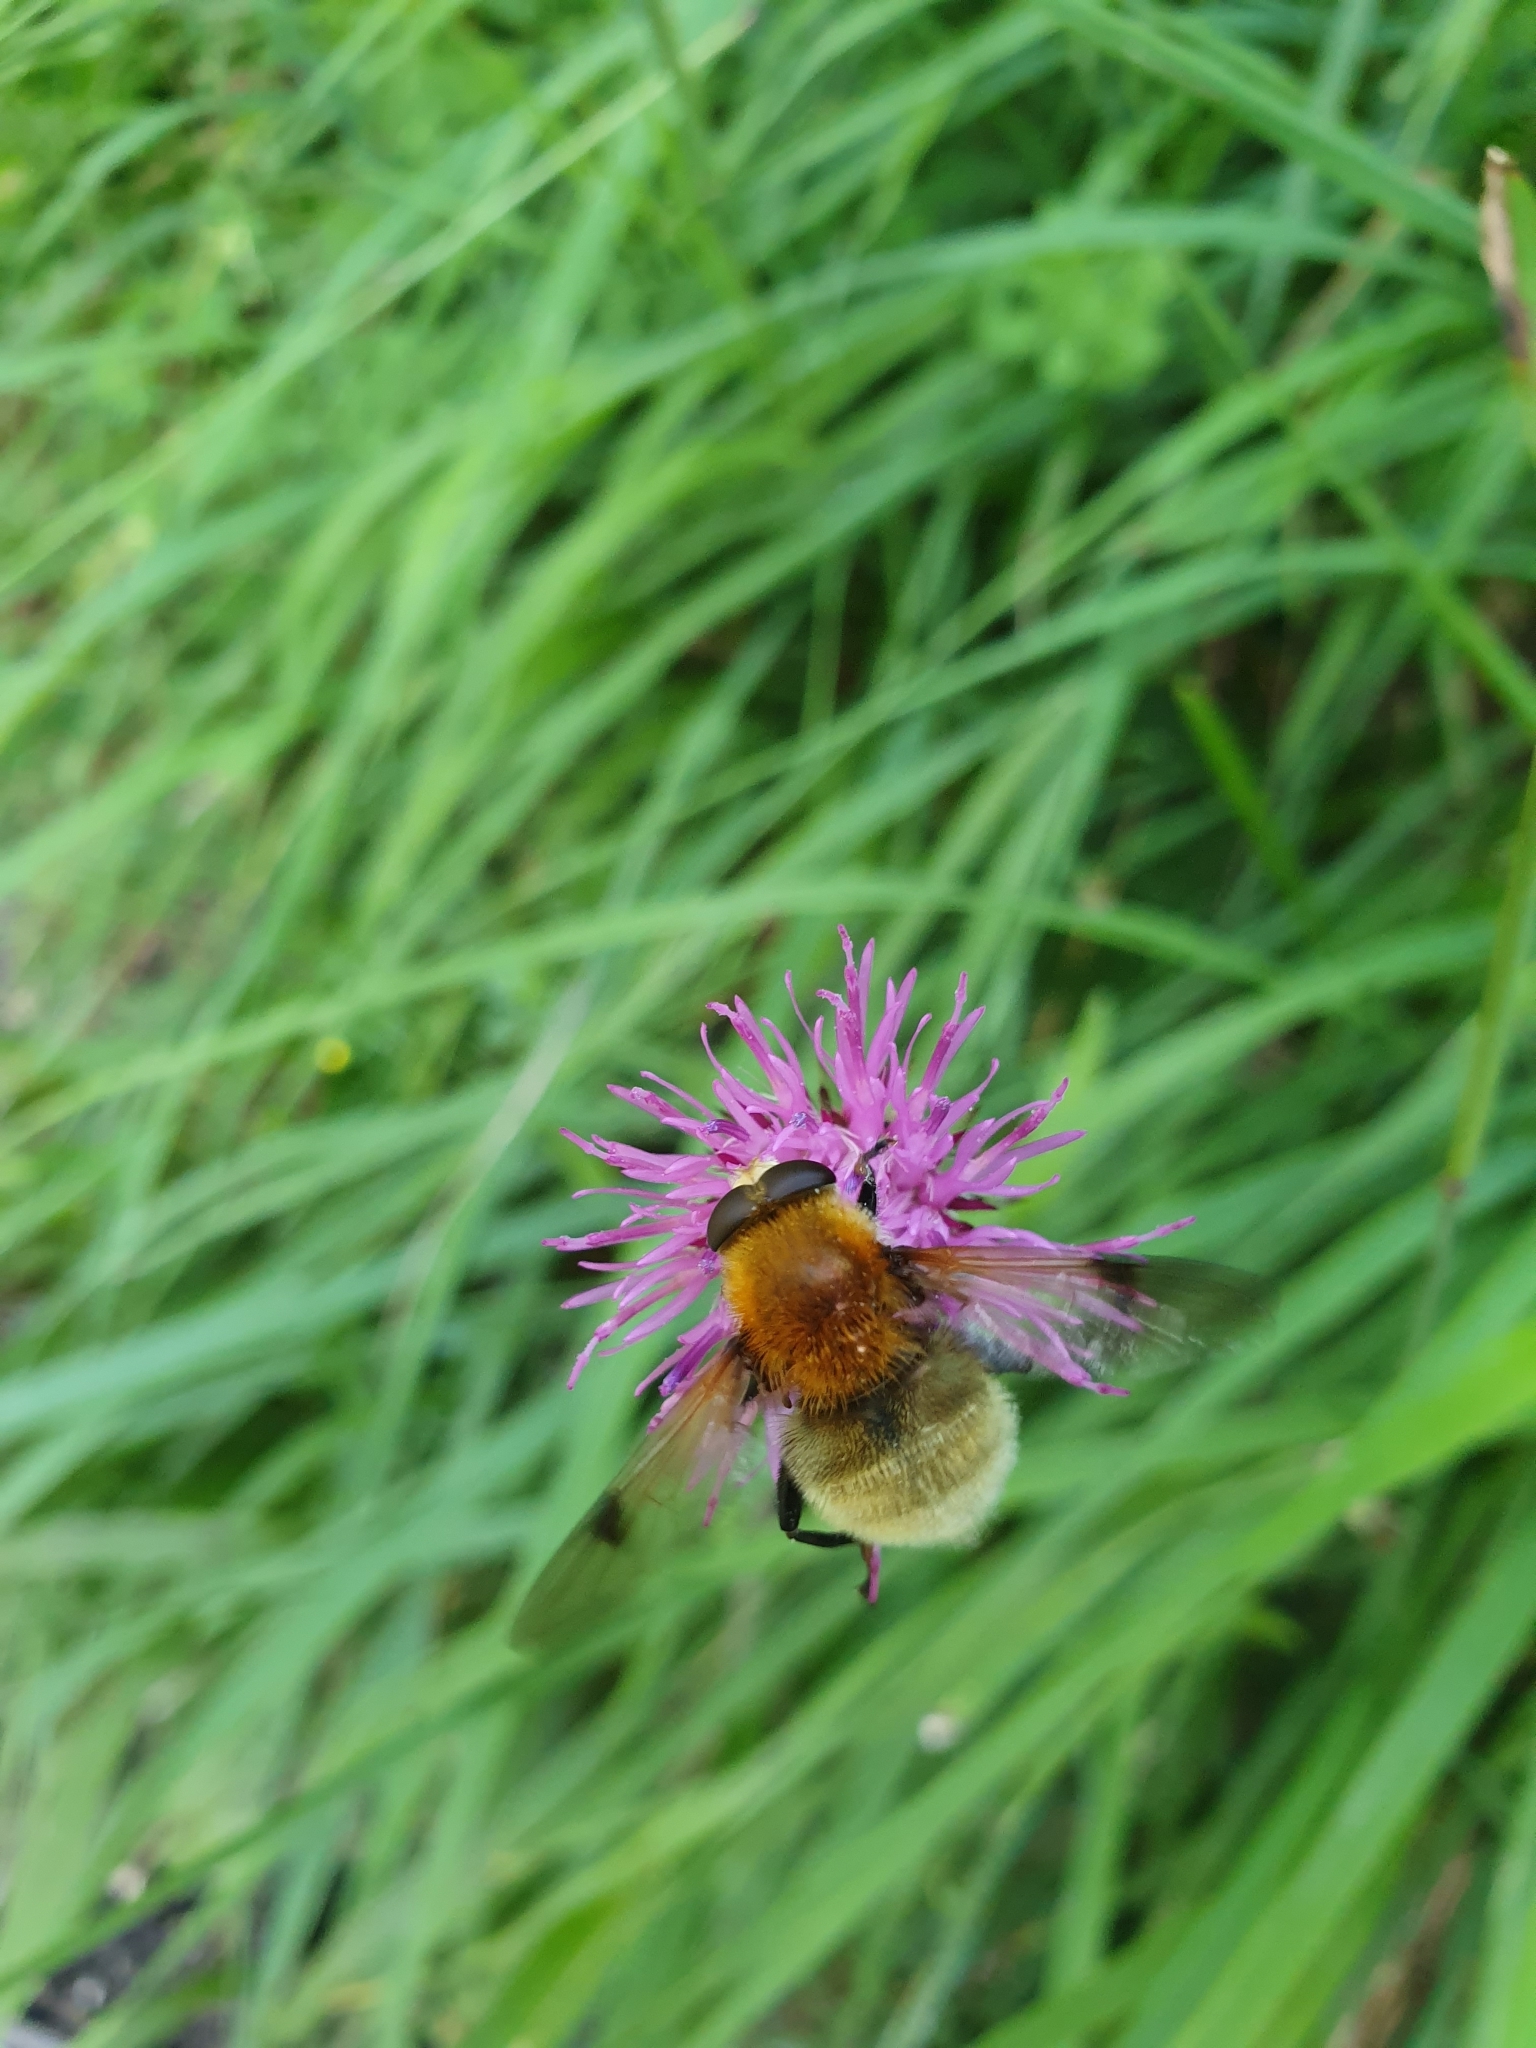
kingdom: Animalia
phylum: Arthropoda
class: Insecta
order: Diptera
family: Syrphidae
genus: Sericomyia
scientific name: Sericomyia superbiens
